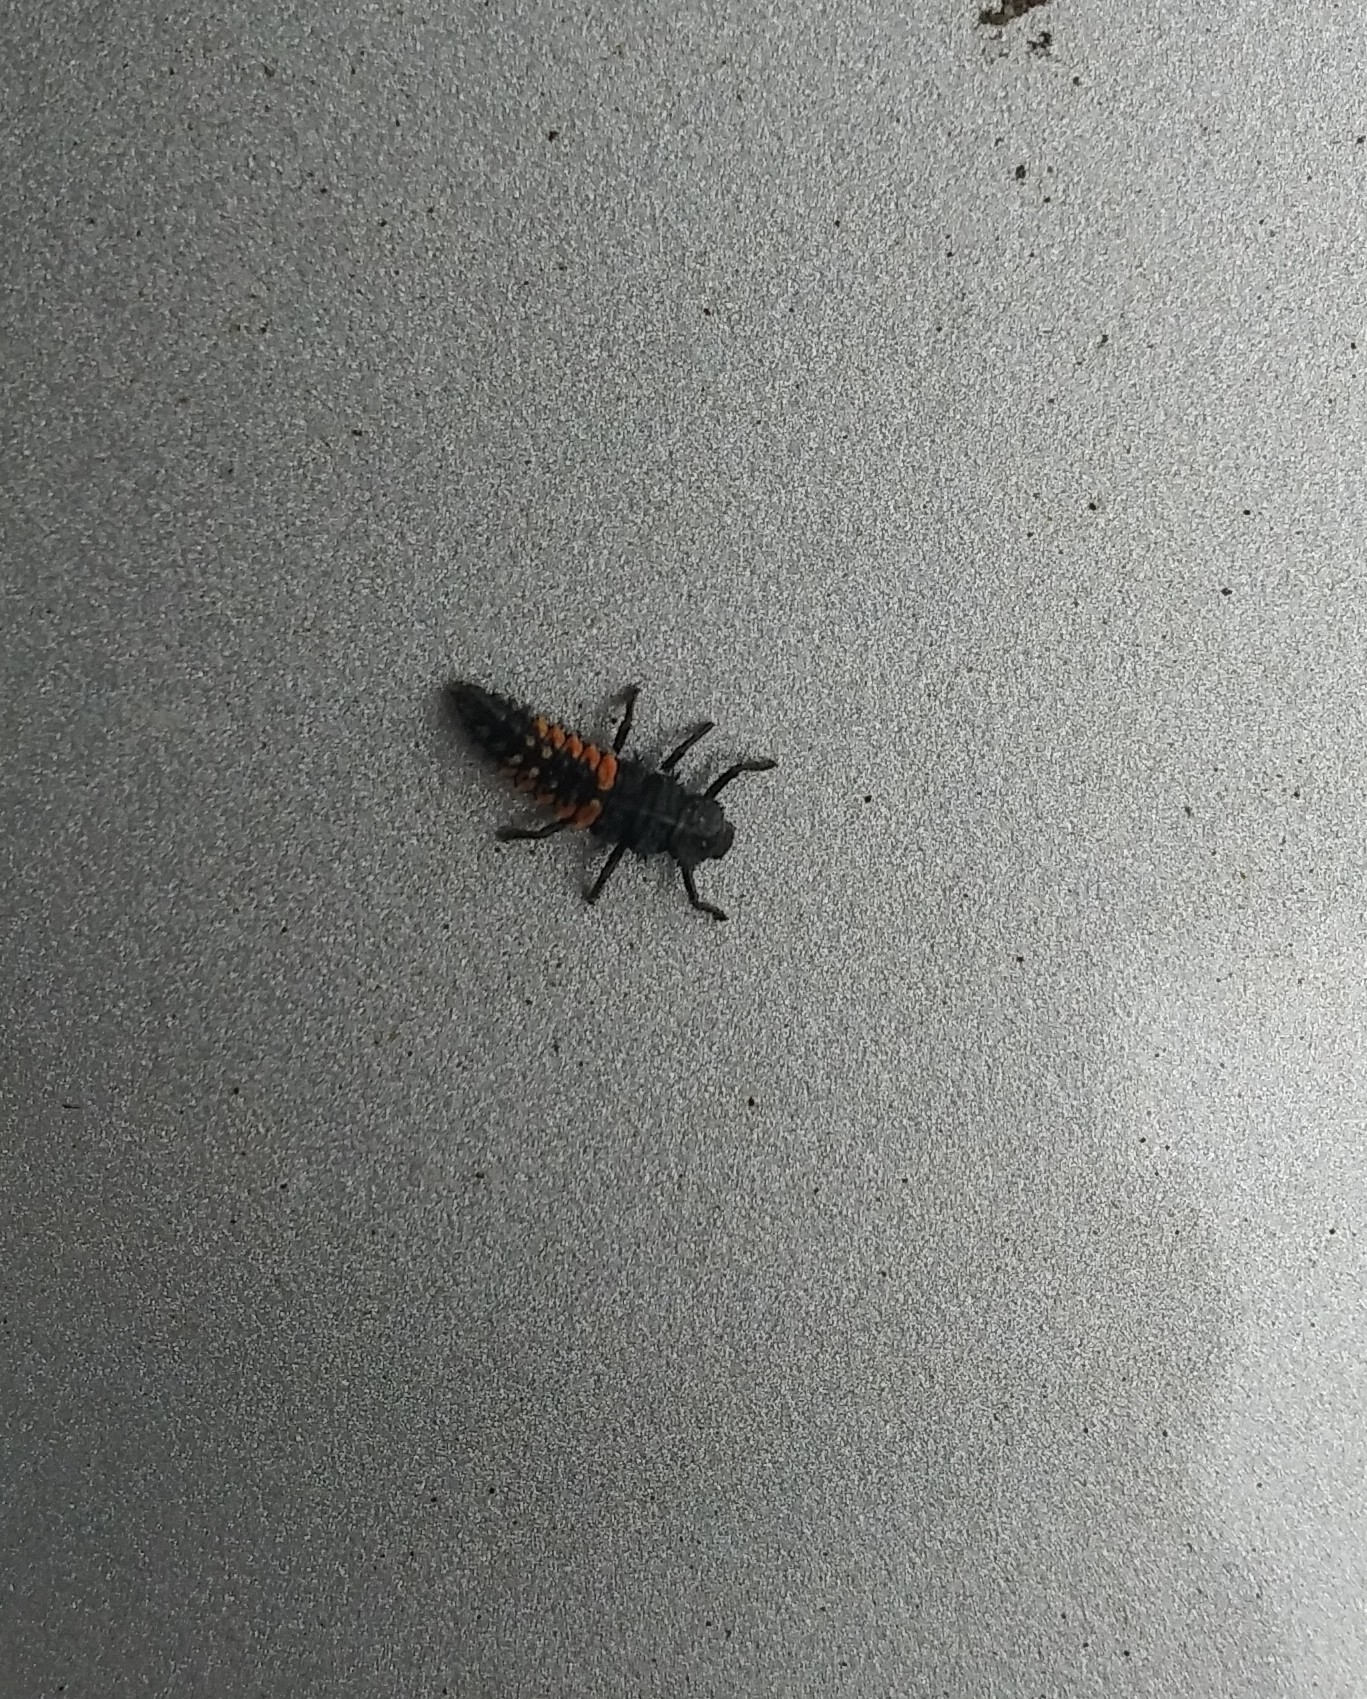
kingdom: Animalia
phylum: Arthropoda
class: Insecta
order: Coleoptera
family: Coccinellidae
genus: Harmonia
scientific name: Harmonia axyridis
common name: Harlequin ladybird
